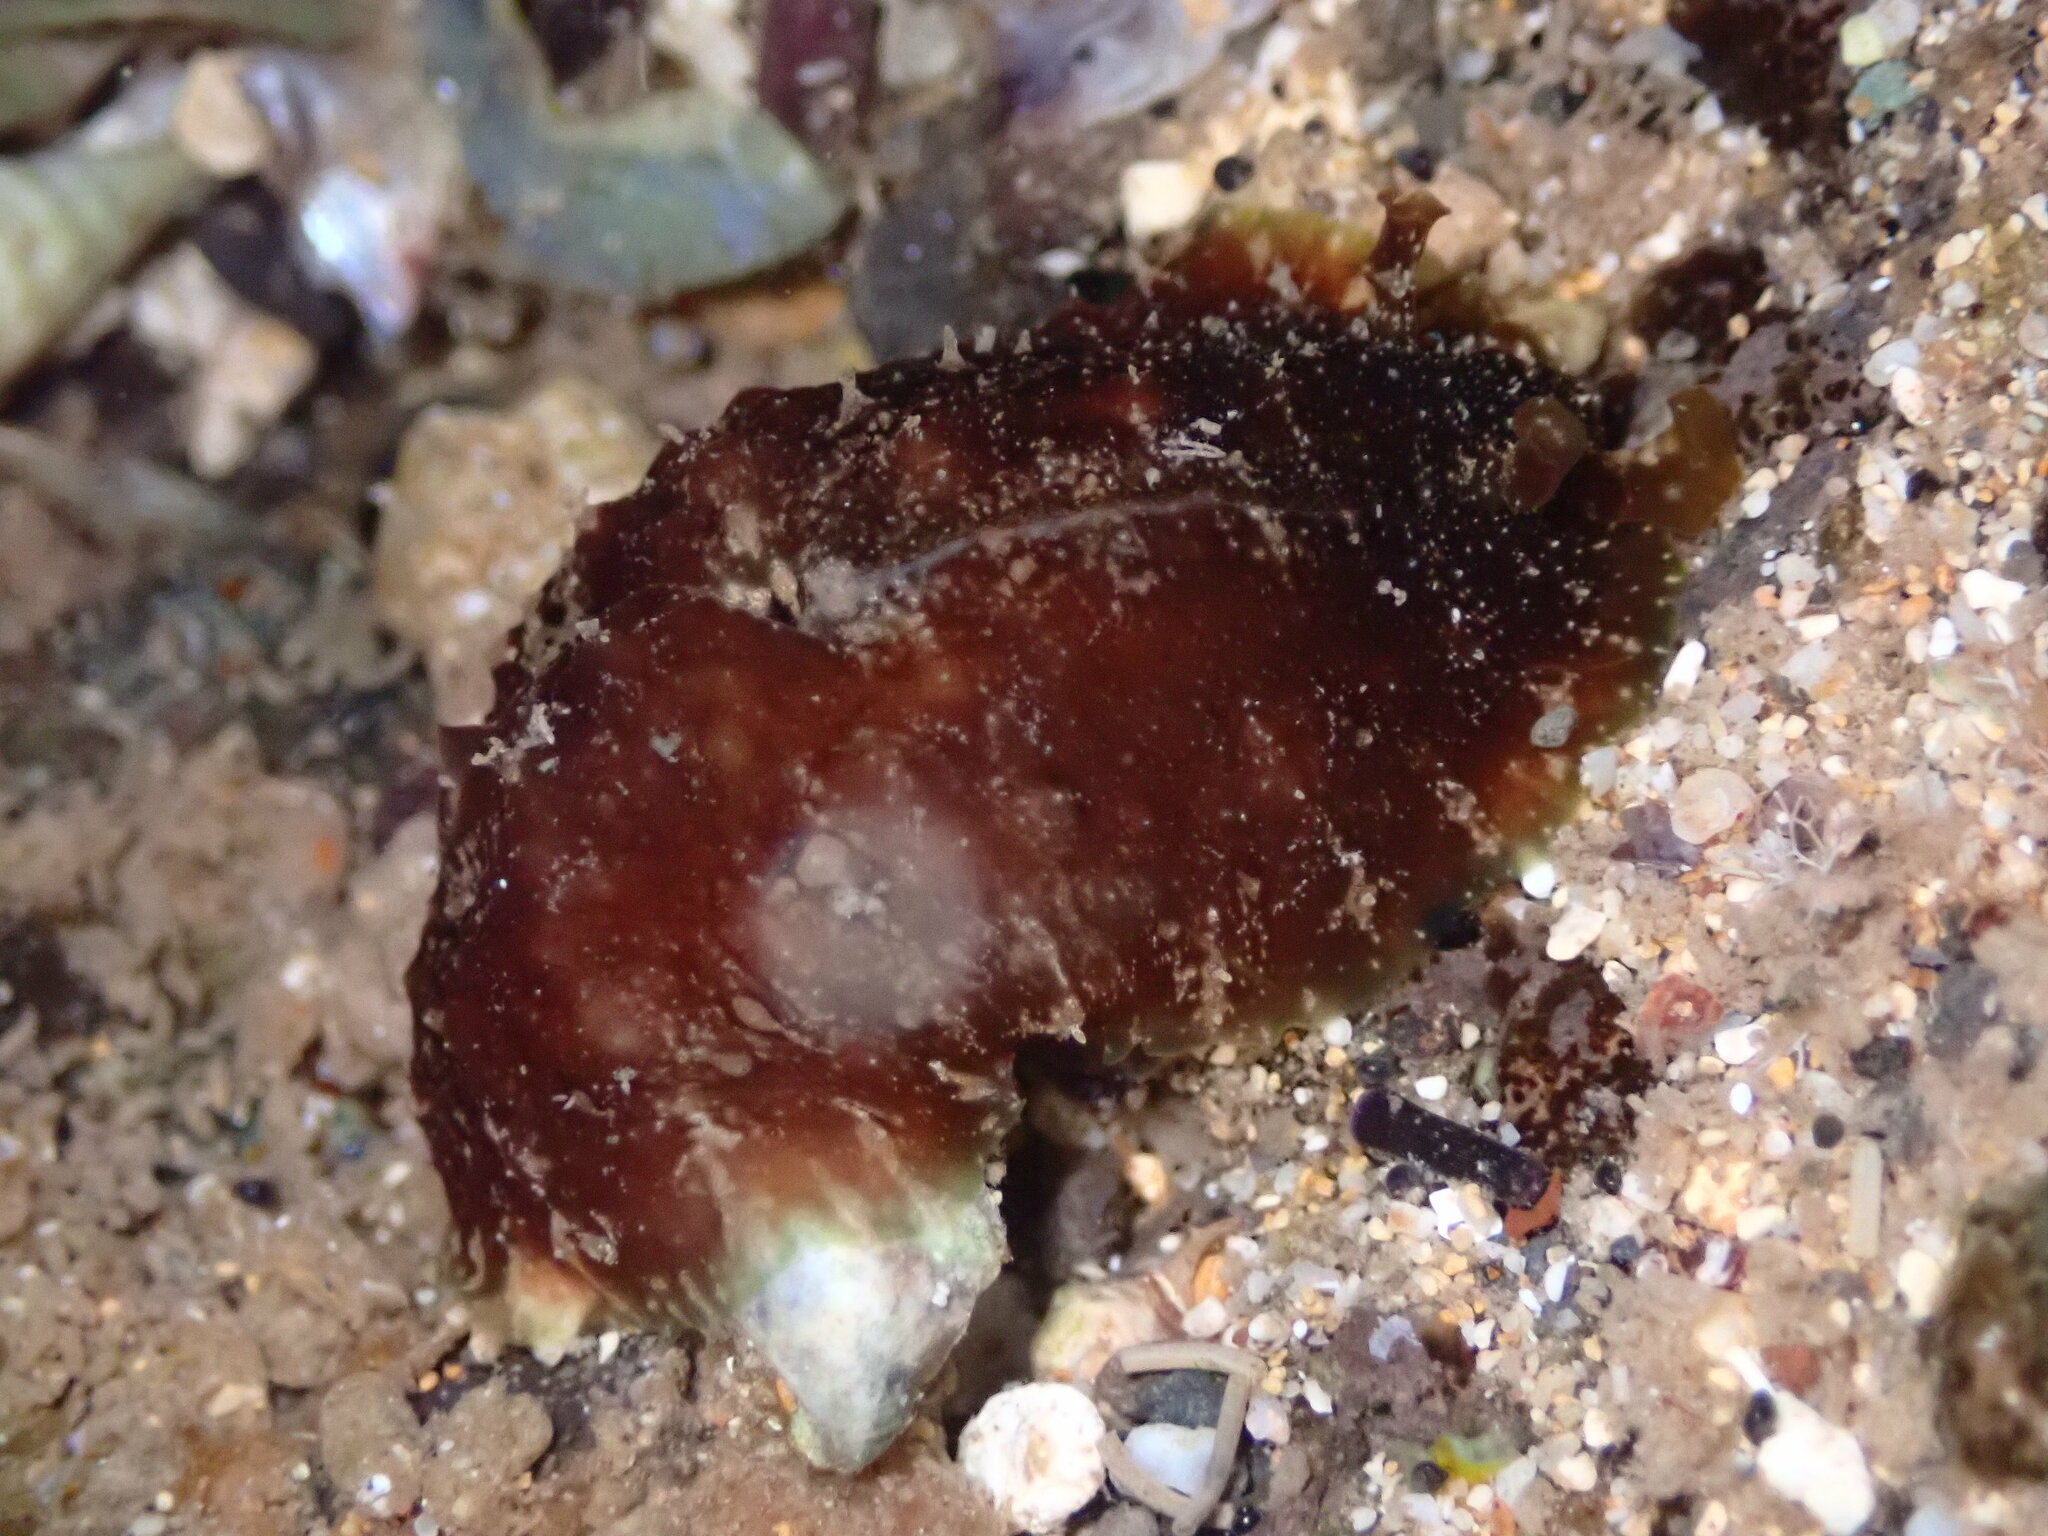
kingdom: Animalia
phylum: Mollusca
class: Gastropoda
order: Aplysiida
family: Aplysiidae
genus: Dolabrifera
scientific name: Dolabrifera dolabrifera
